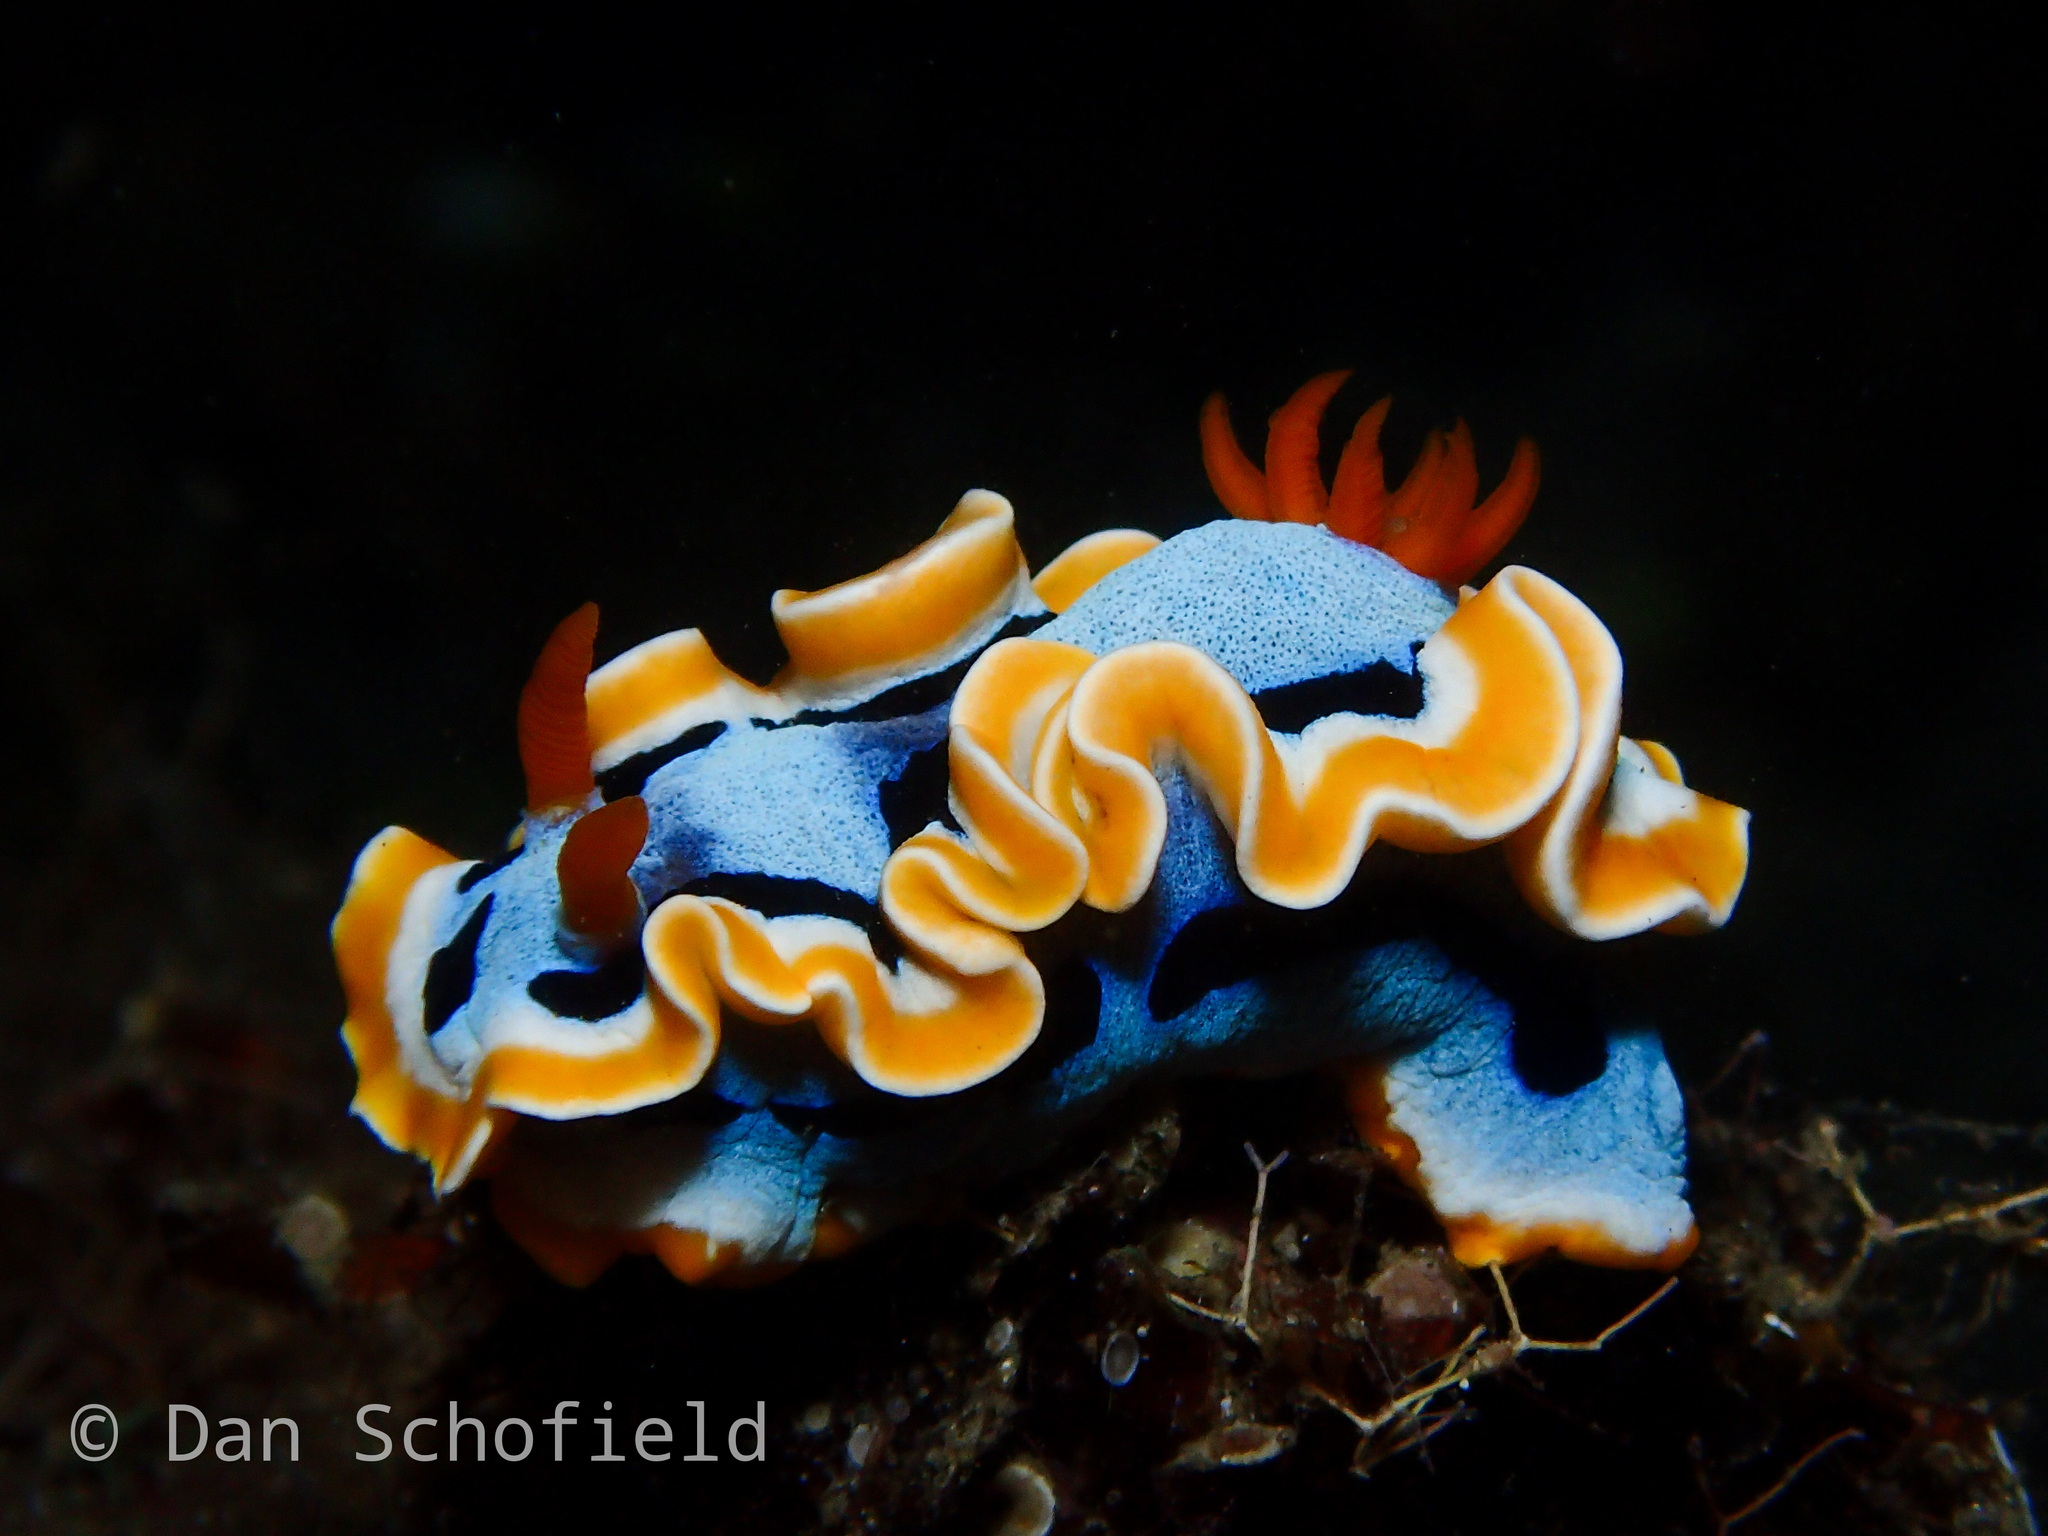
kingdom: Animalia
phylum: Mollusca
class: Gastropoda
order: Nudibranchia
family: Chromodorididae
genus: Chromodoris
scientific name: Chromodoris annae
